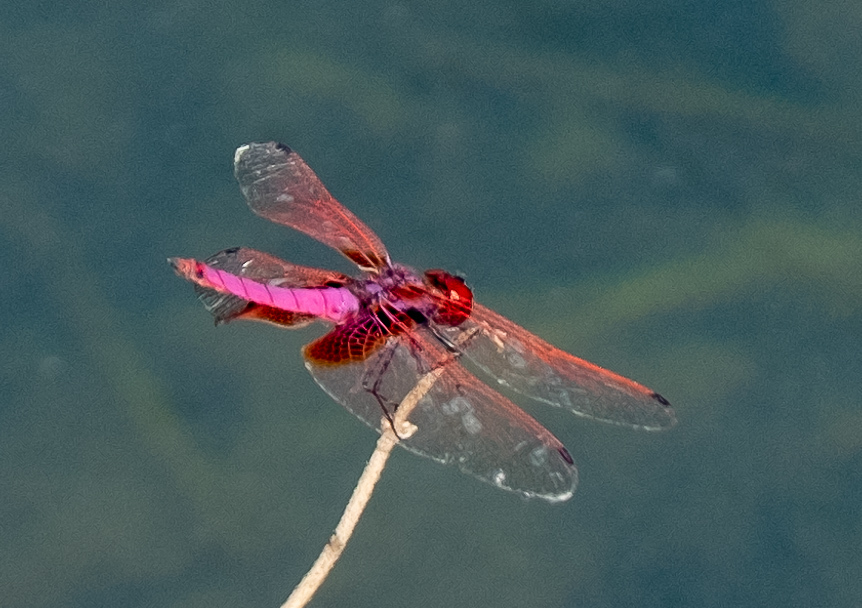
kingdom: Animalia
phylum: Arthropoda
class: Insecta
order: Odonata
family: Libellulidae
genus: Trithemis
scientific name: Trithemis aurora
